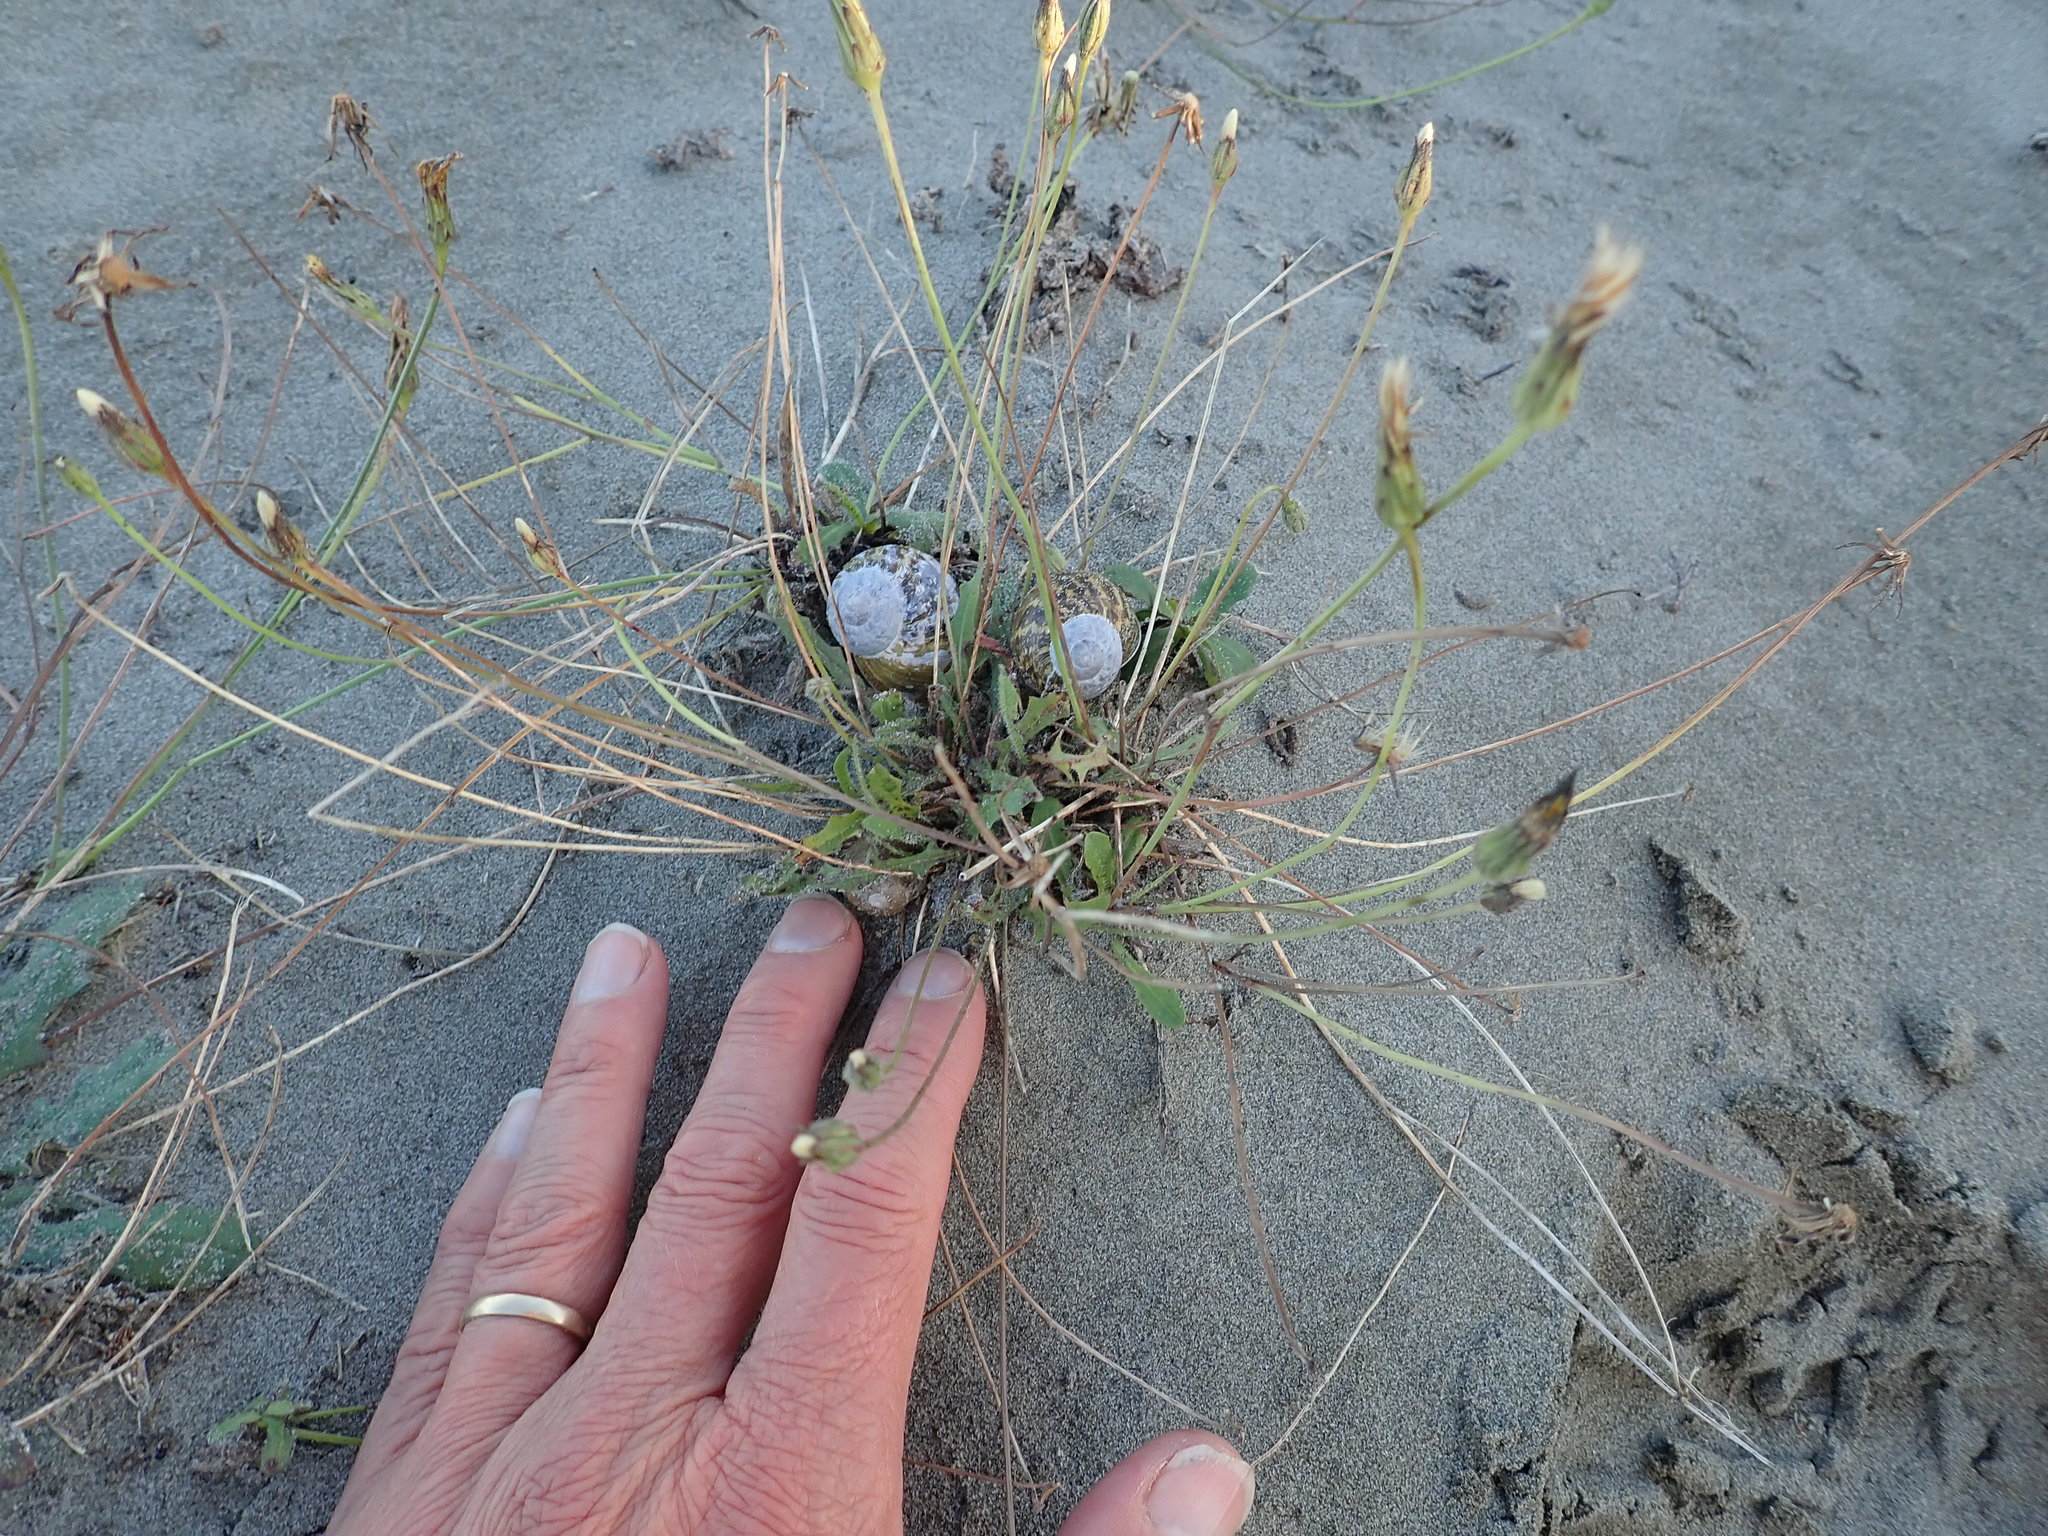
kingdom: Animalia
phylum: Mollusca
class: Gastropoda
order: Stylommatophora
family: Helicidae
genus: Cornu
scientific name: Cornu aspersum
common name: Brown garden snail
